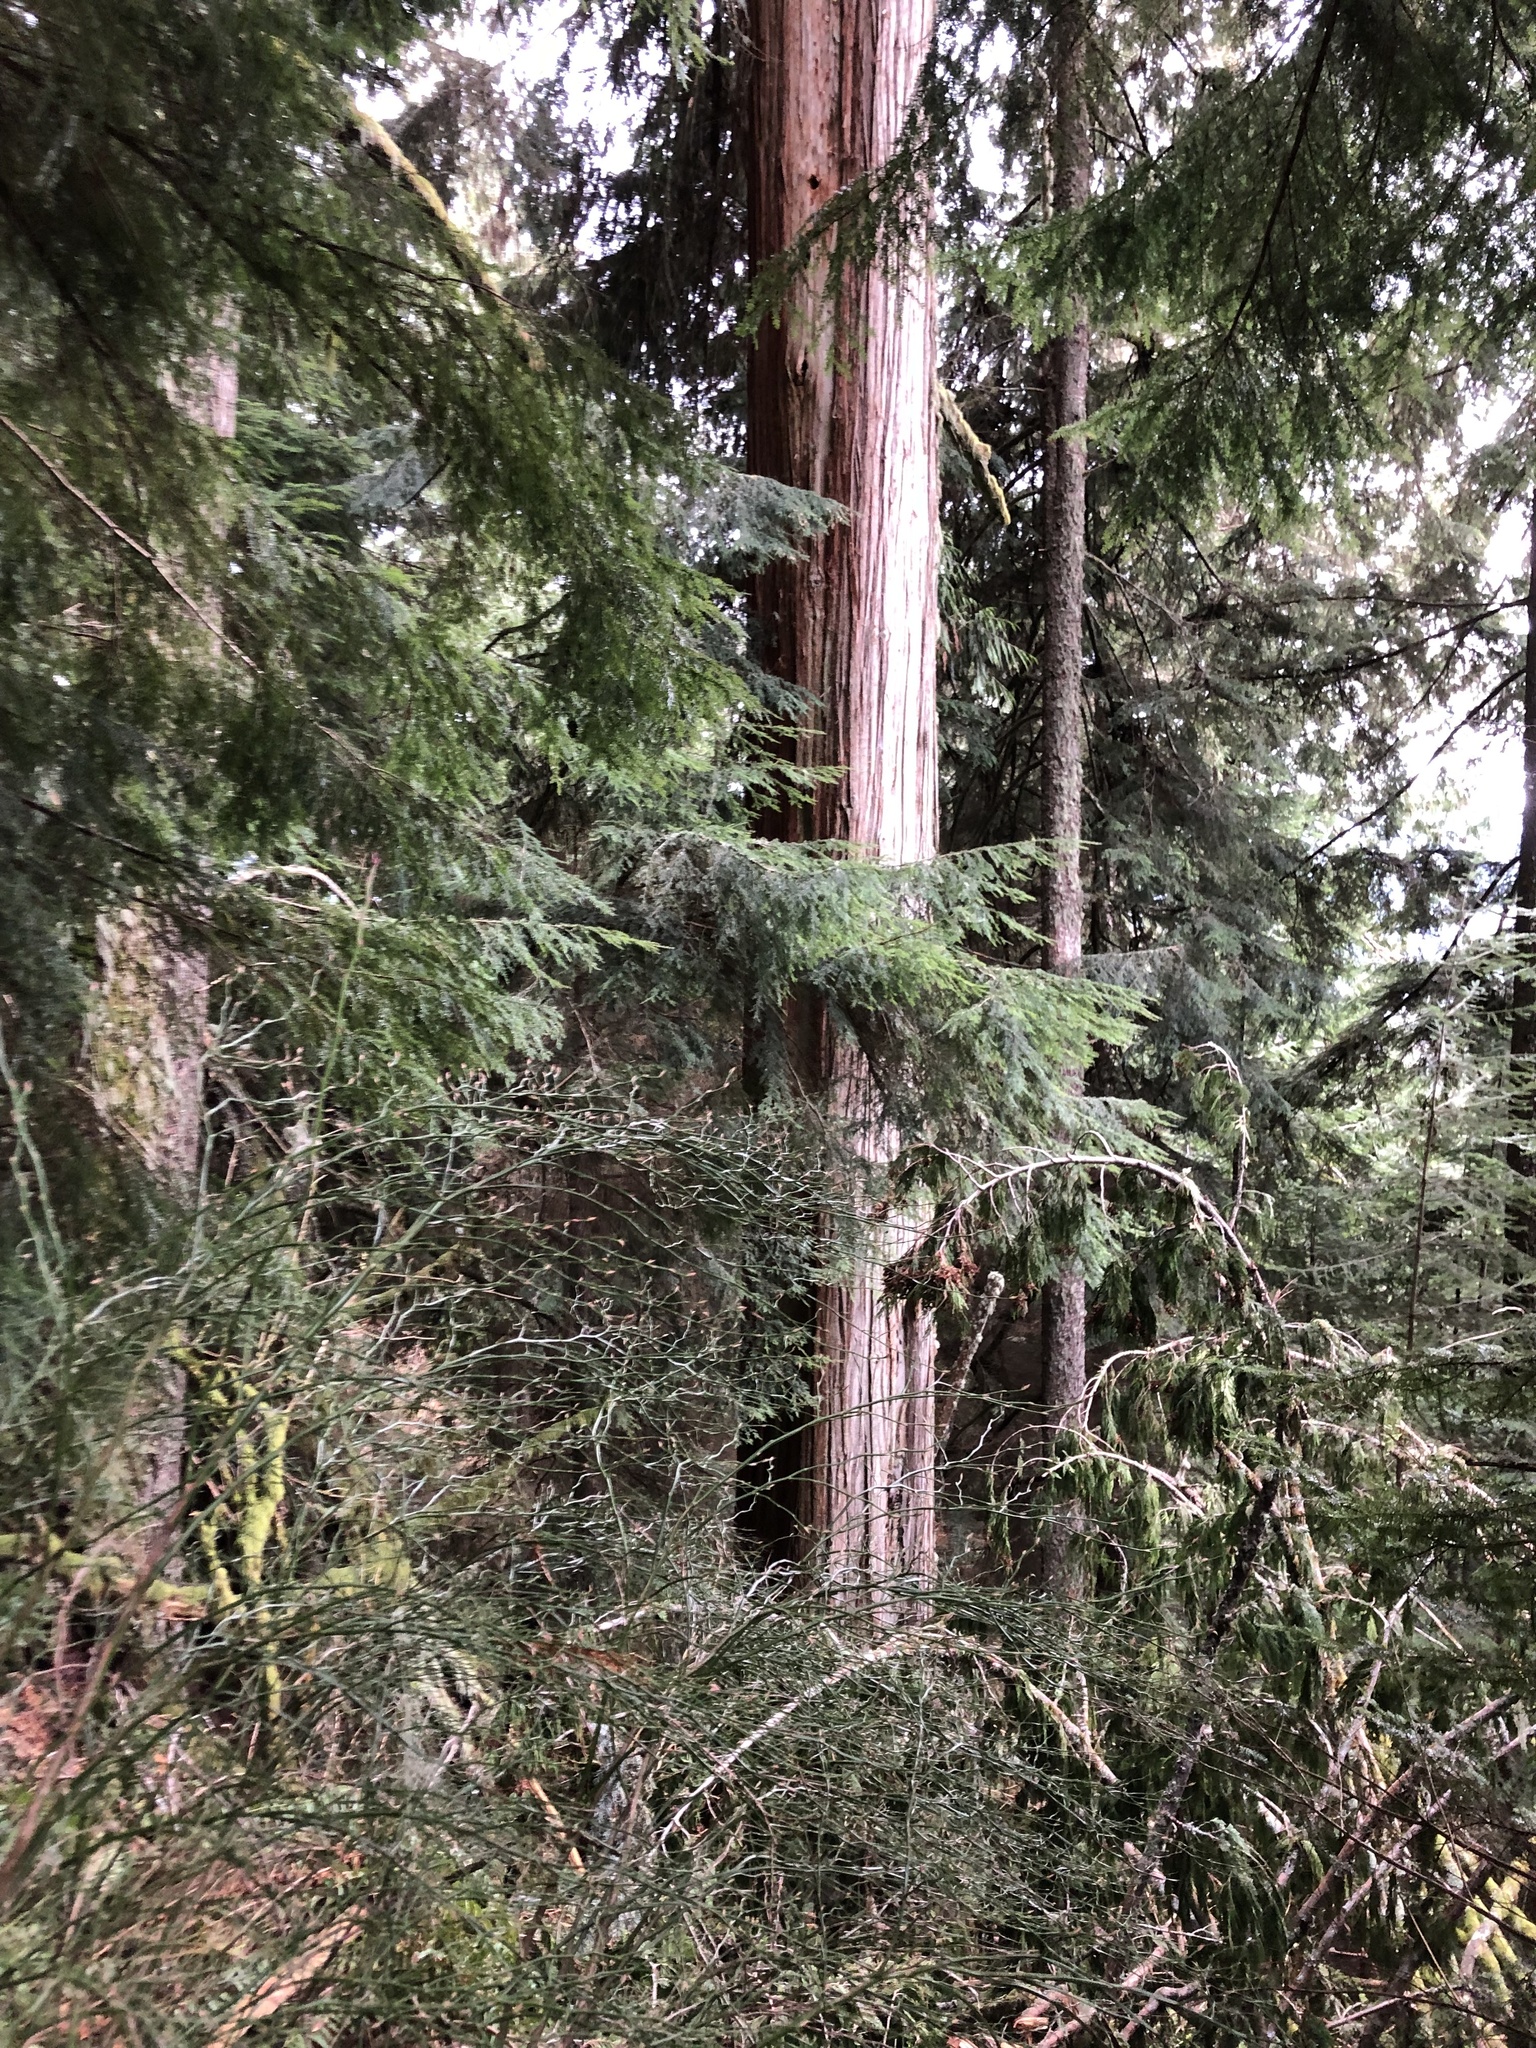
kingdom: Plantae
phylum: Tracheophyta
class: Pinopsida
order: Pinales
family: Cupressaceae
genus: Thuja
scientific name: Thuja plicata
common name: Western red-cedar
